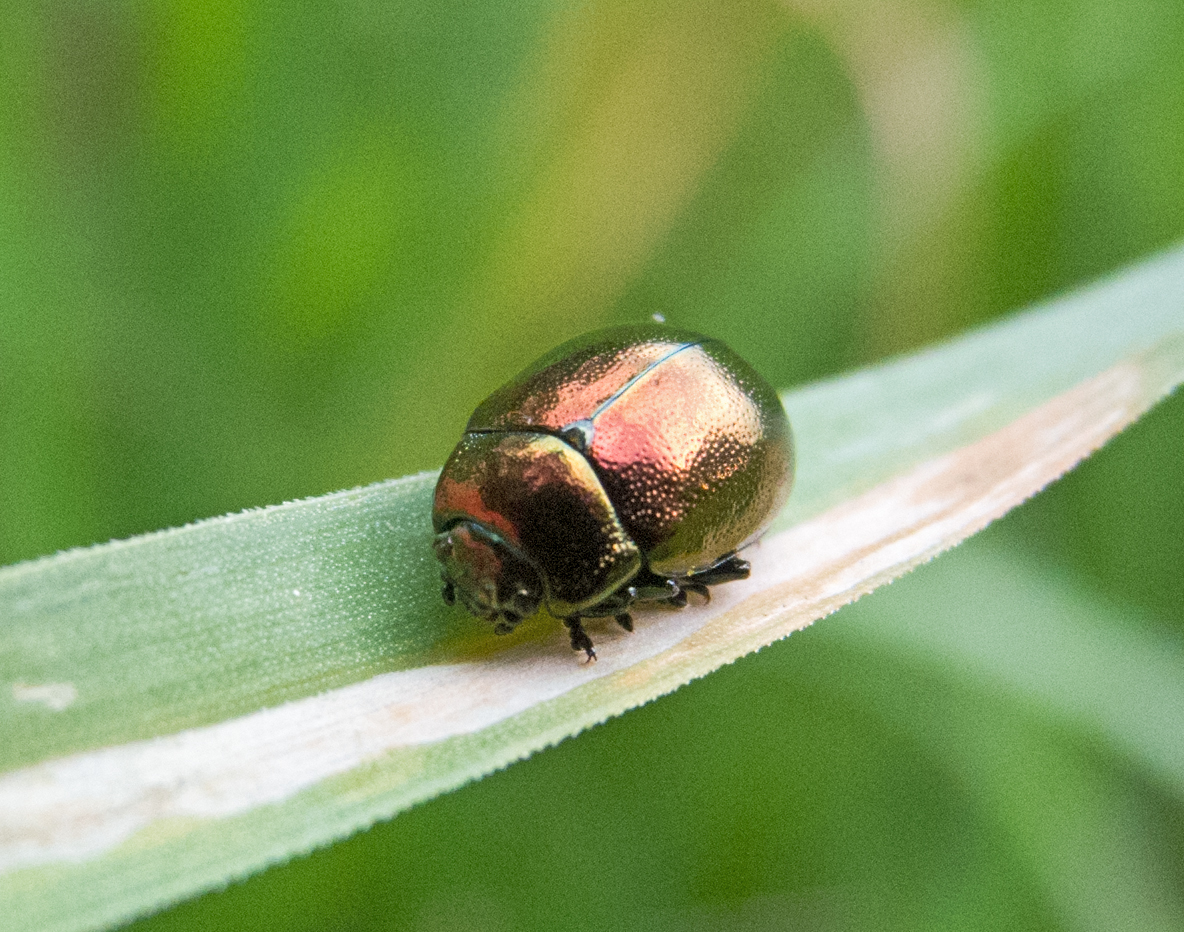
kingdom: Animalia
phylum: Arthropoda
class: Insecta
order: Coleoptera
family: Chrysomelidae
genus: Chrysolina
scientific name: Chrysolina varians
